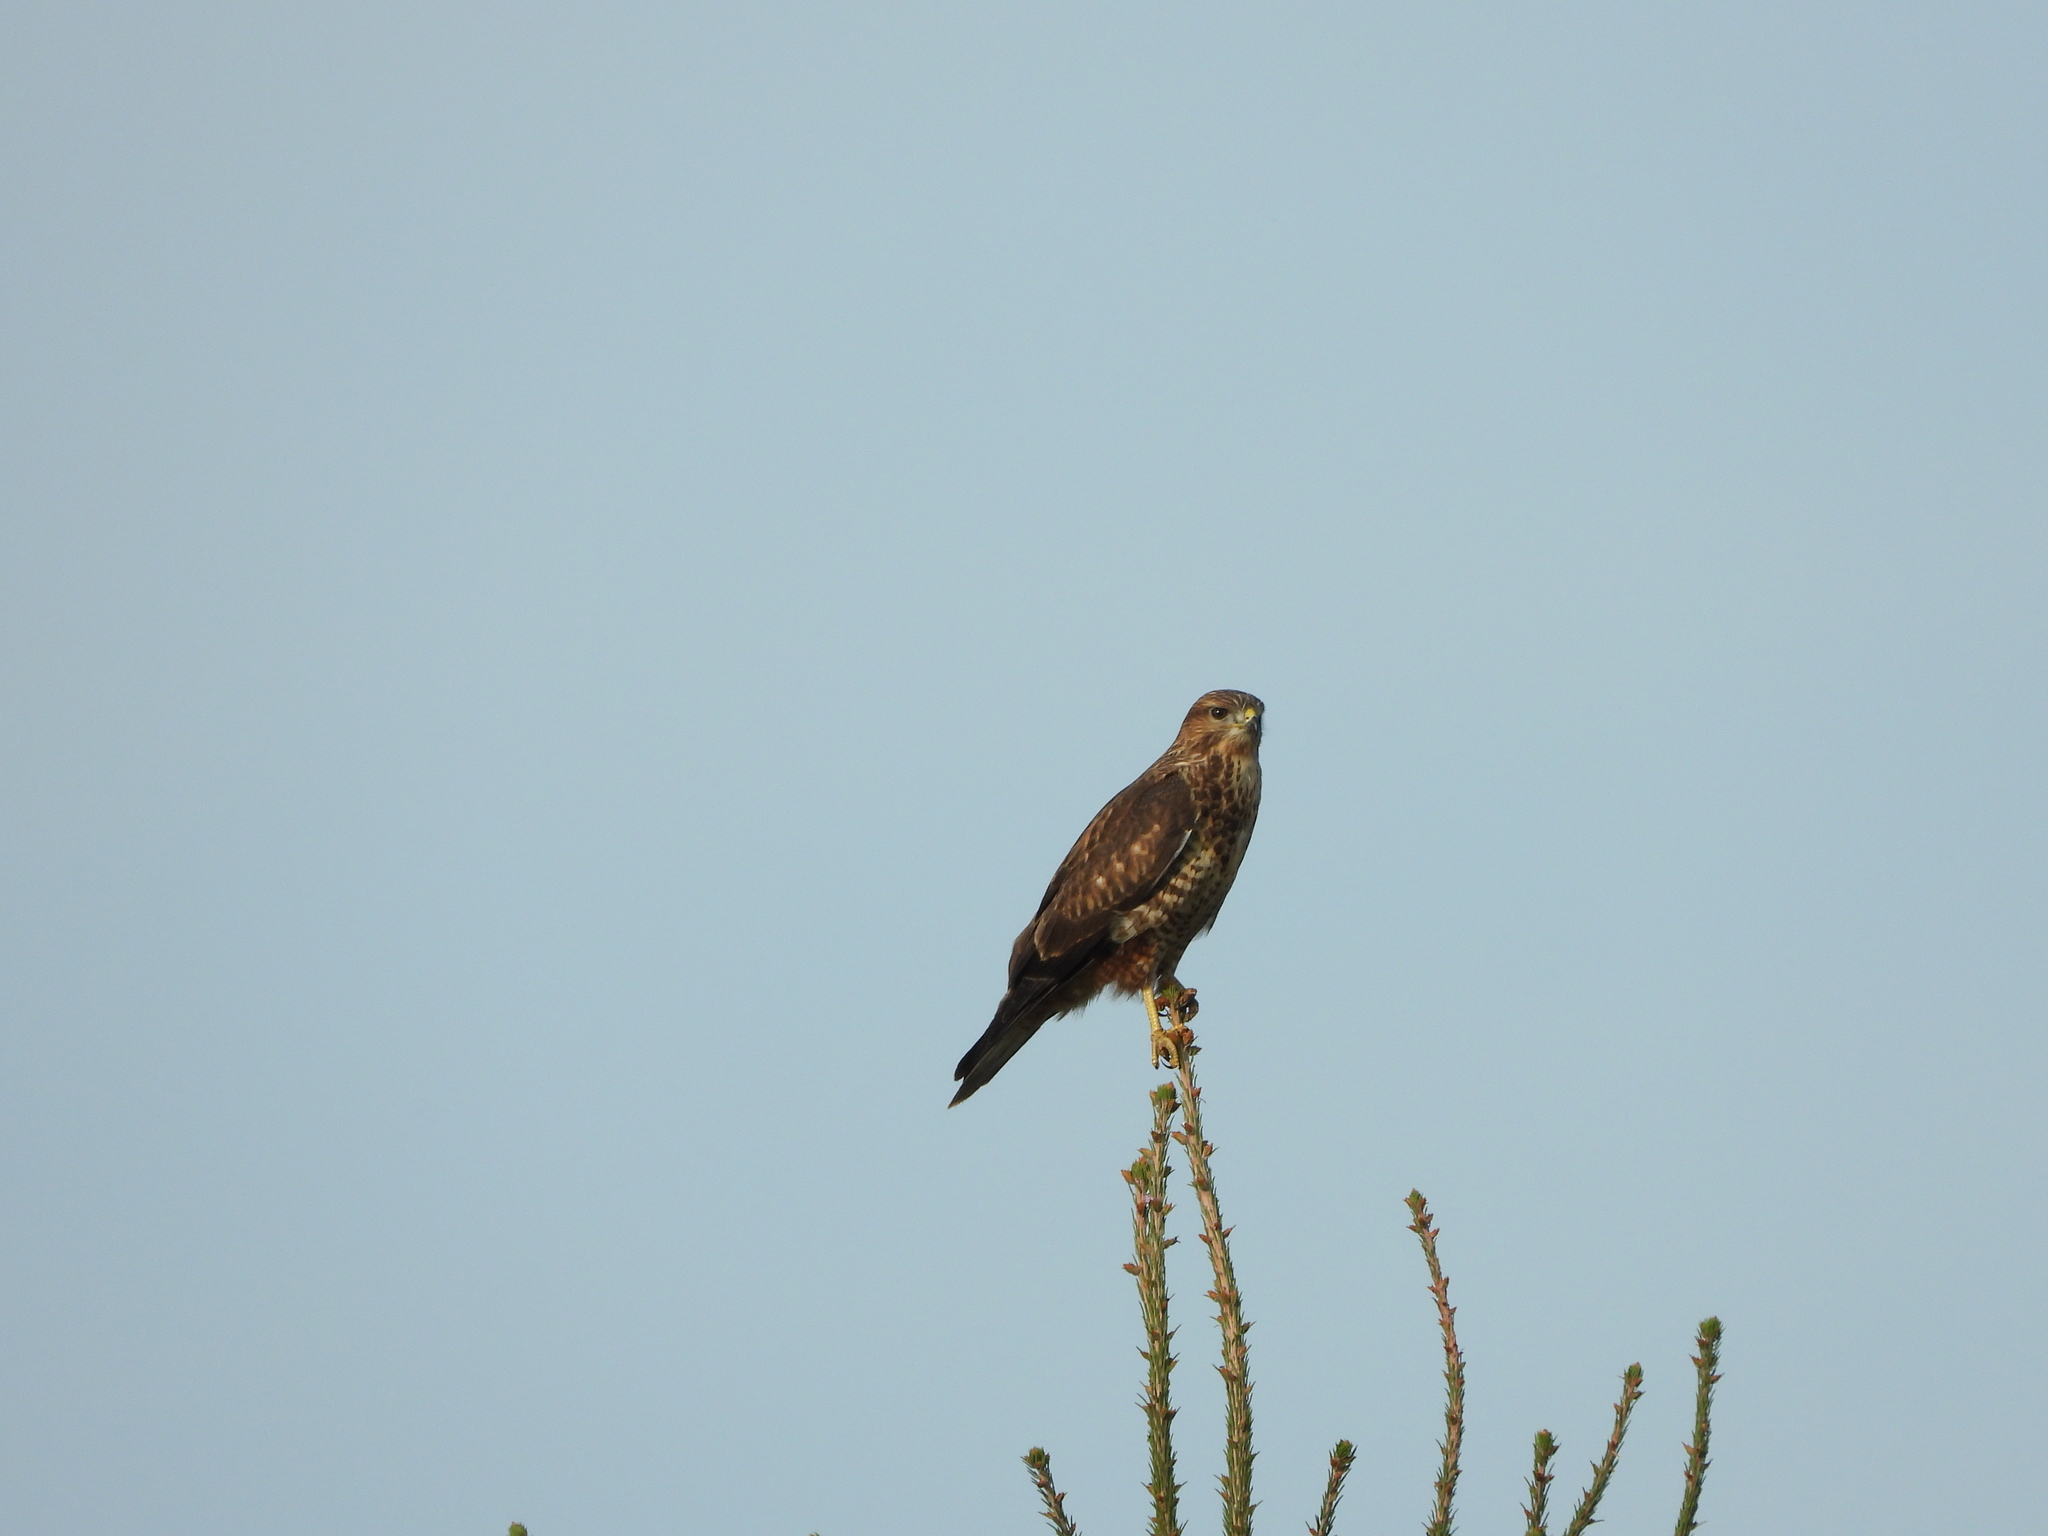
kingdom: Animalia
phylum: Chordata
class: Aves
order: Accipitriformes
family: Accipitridae
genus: Buteo
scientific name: Buteo buteo
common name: Common buzzard
